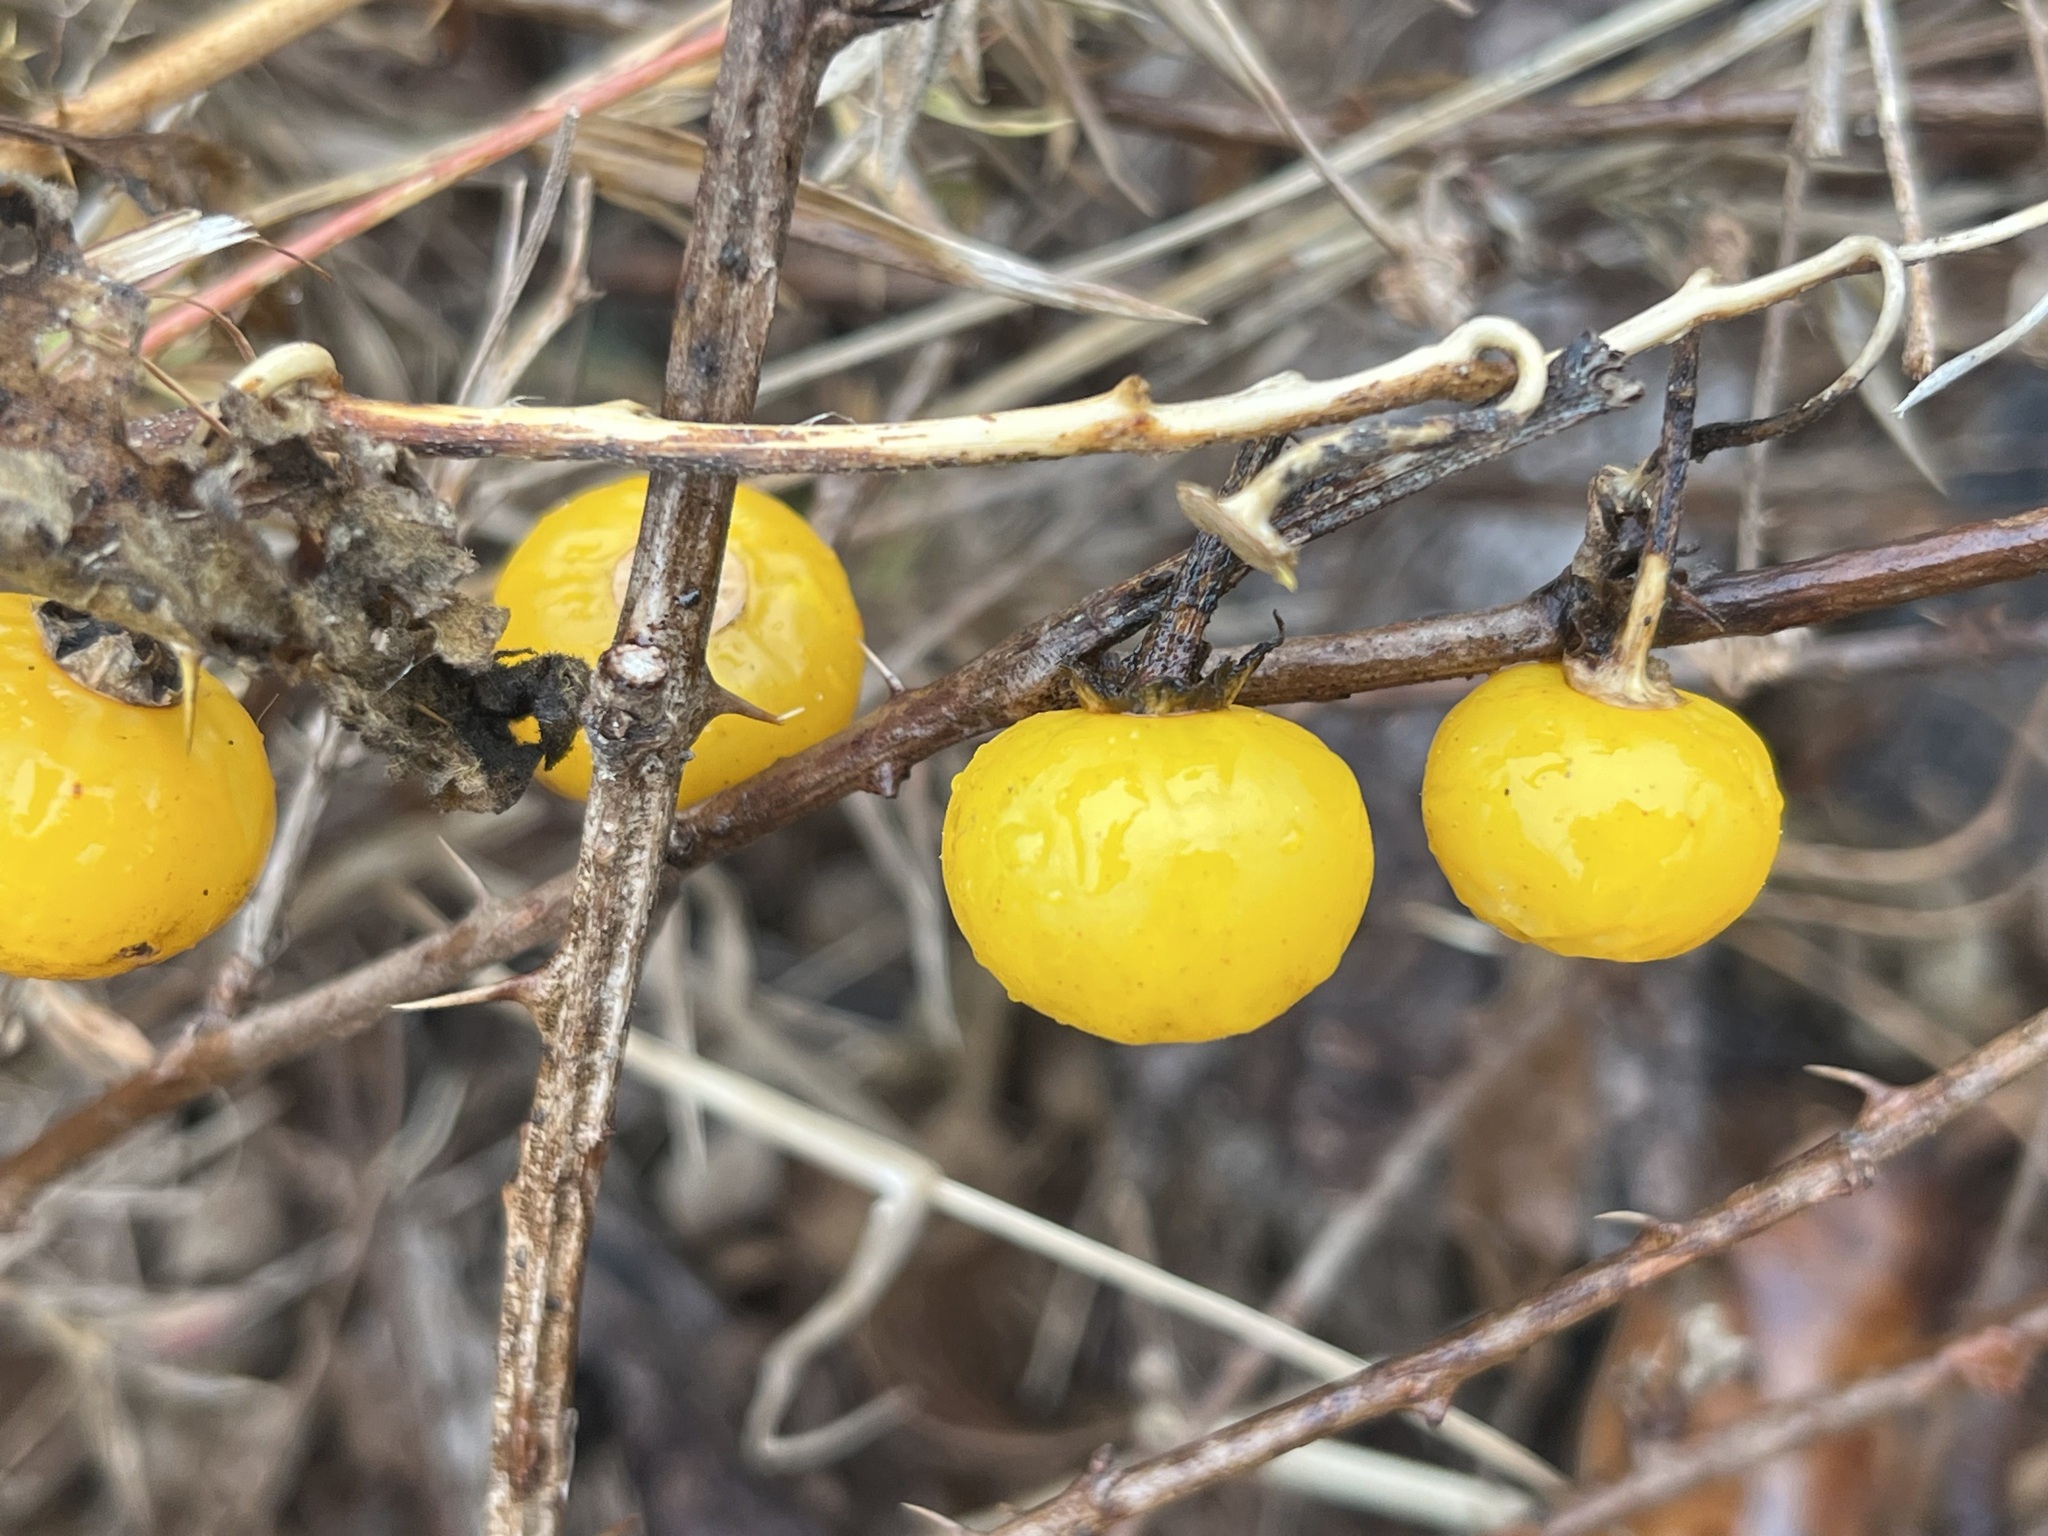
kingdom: Plantae
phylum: Tracheophyta
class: Magnoliopsida
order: Solanales
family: Solanaceae
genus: Solanum
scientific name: Solanum carolinense
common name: Horse-nettle
